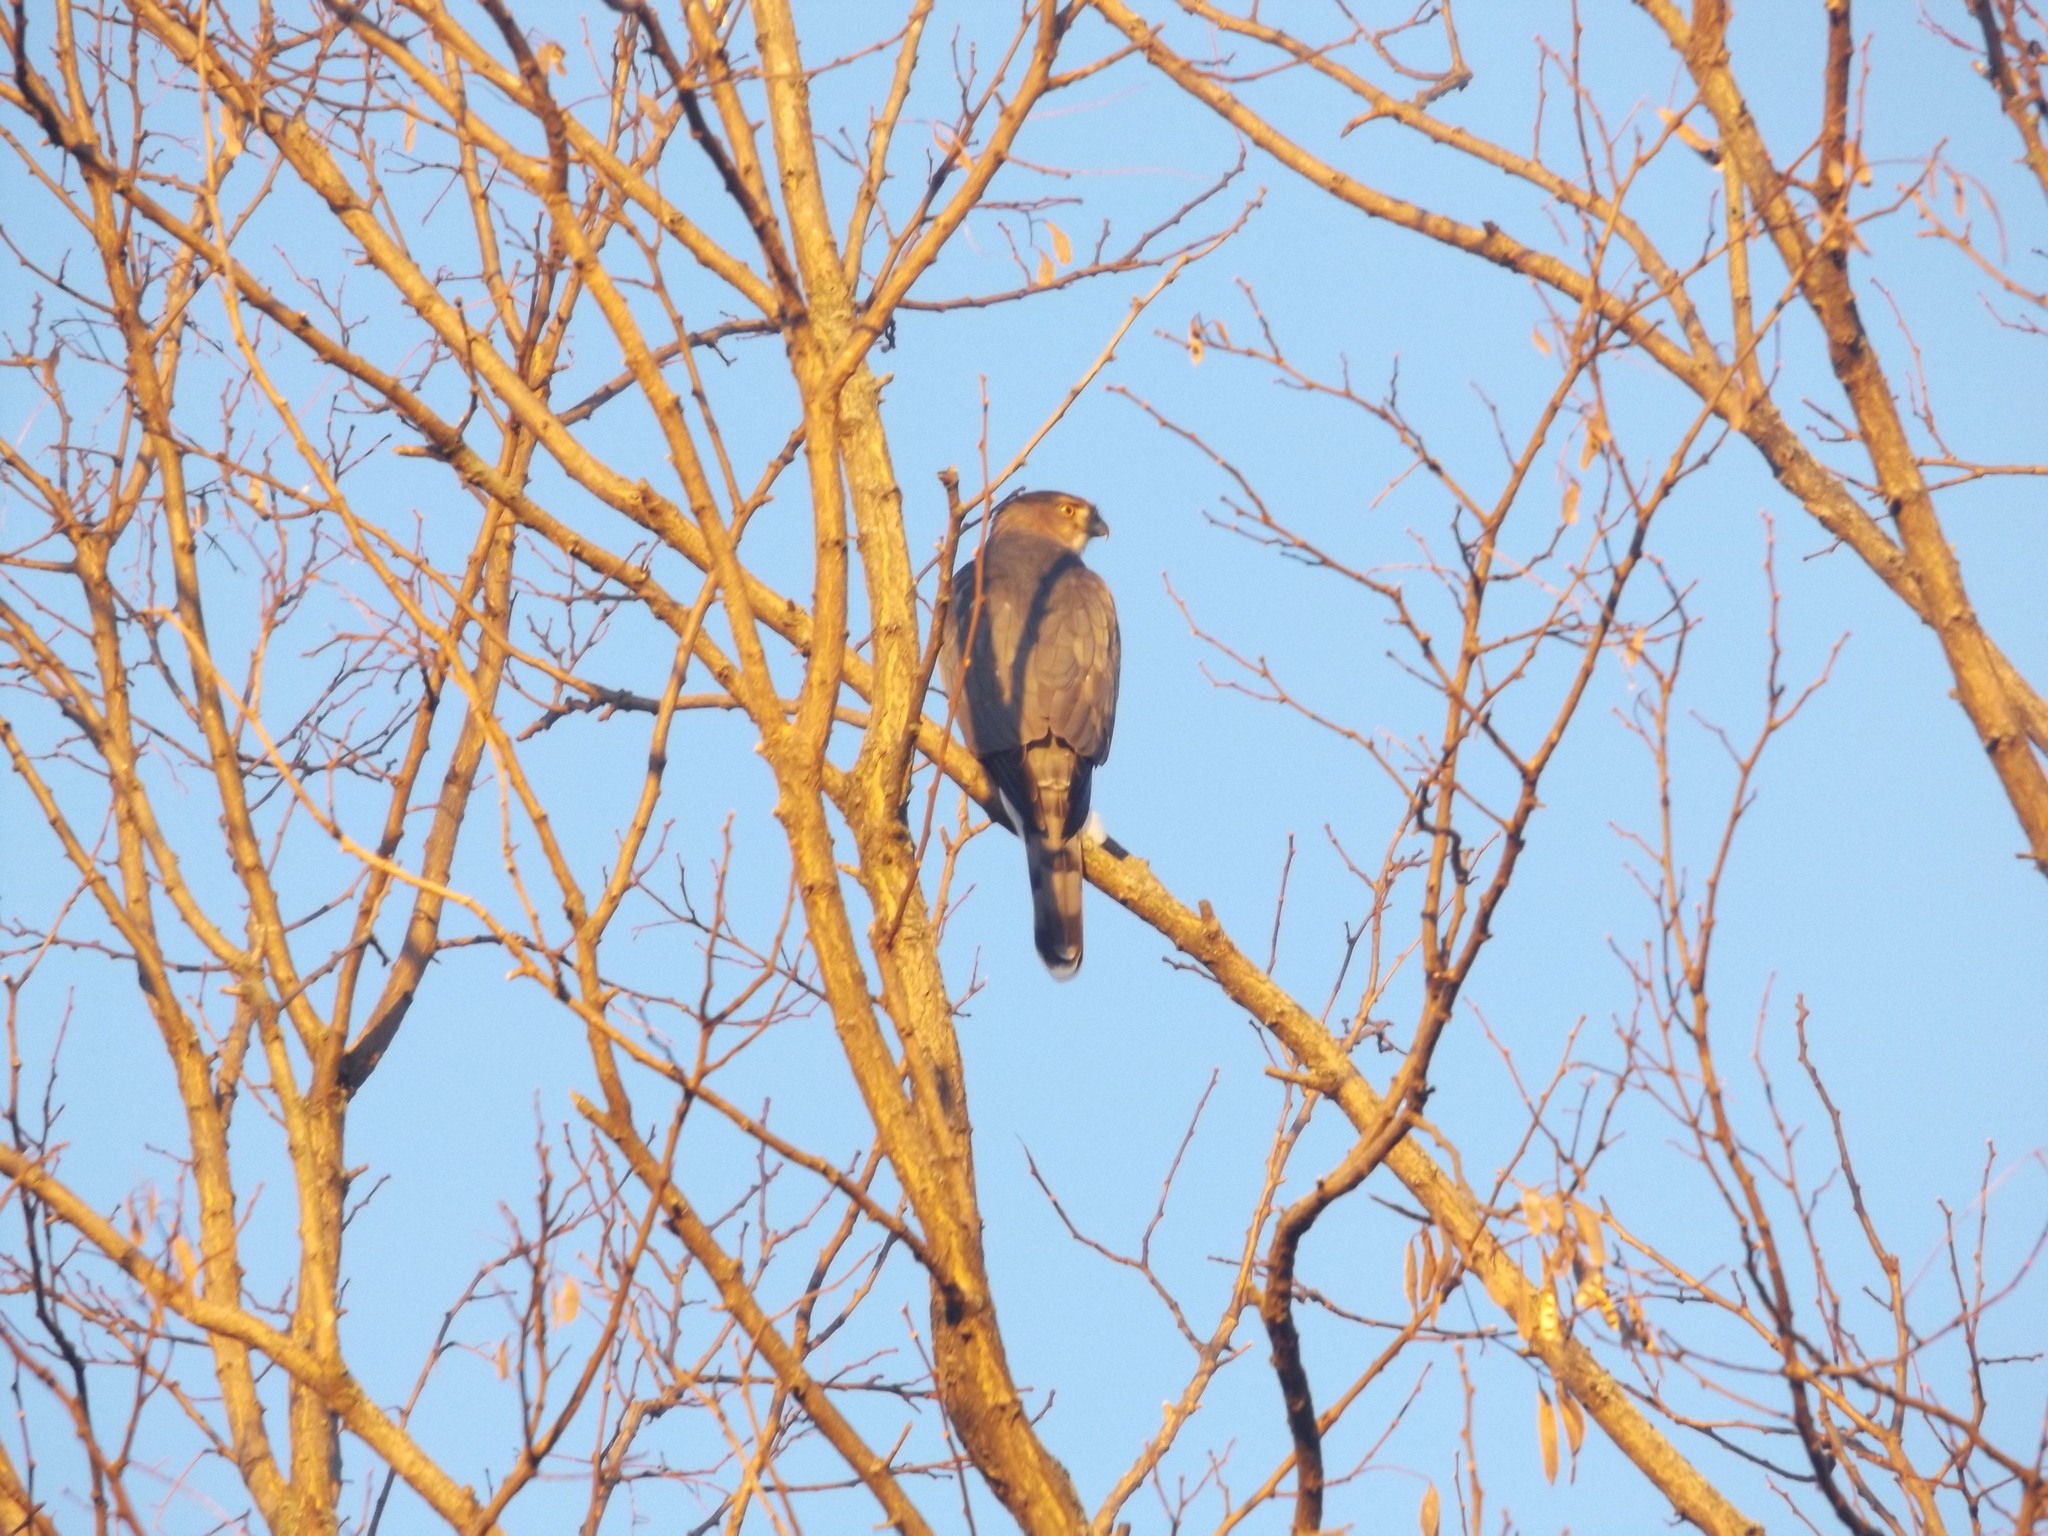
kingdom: Animalia
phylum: Chordata
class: Aves
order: Accipitriformes
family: Accipitridae
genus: Accipiter
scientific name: Accipiter cooperii
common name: Cooper's hawk
